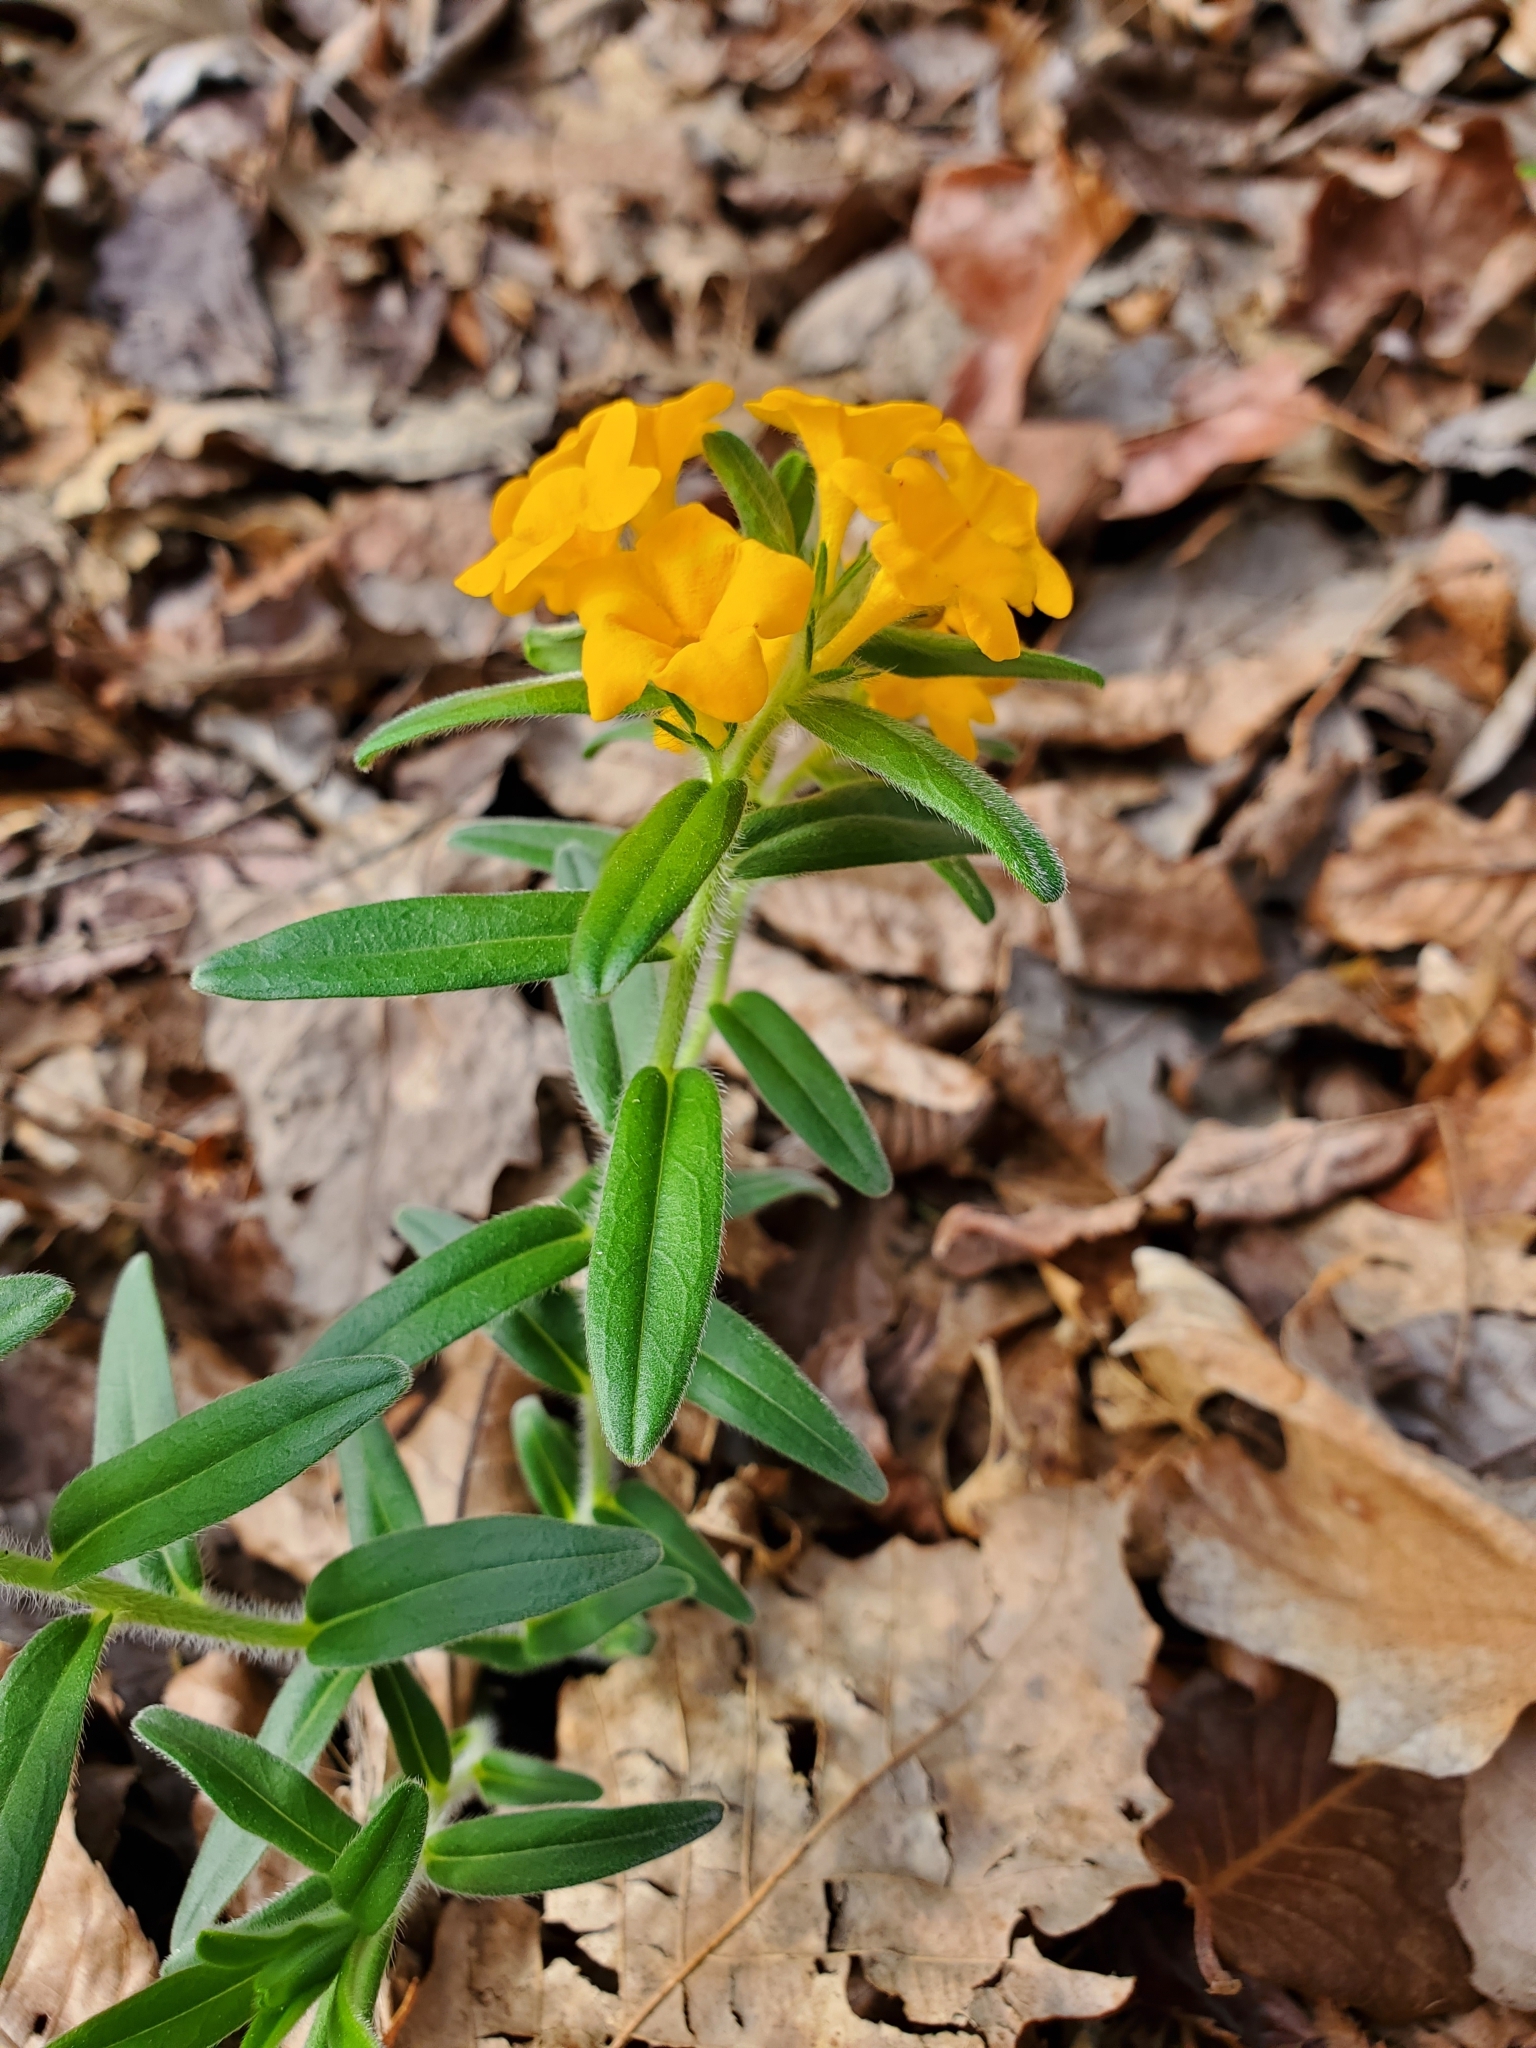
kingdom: Plantae
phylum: Tracheophyta
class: Magnoliopsida
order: Boraginales
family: Boraginaceae
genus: Lithospermum
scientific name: Lithospermum canescens
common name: Hoary puccoon
